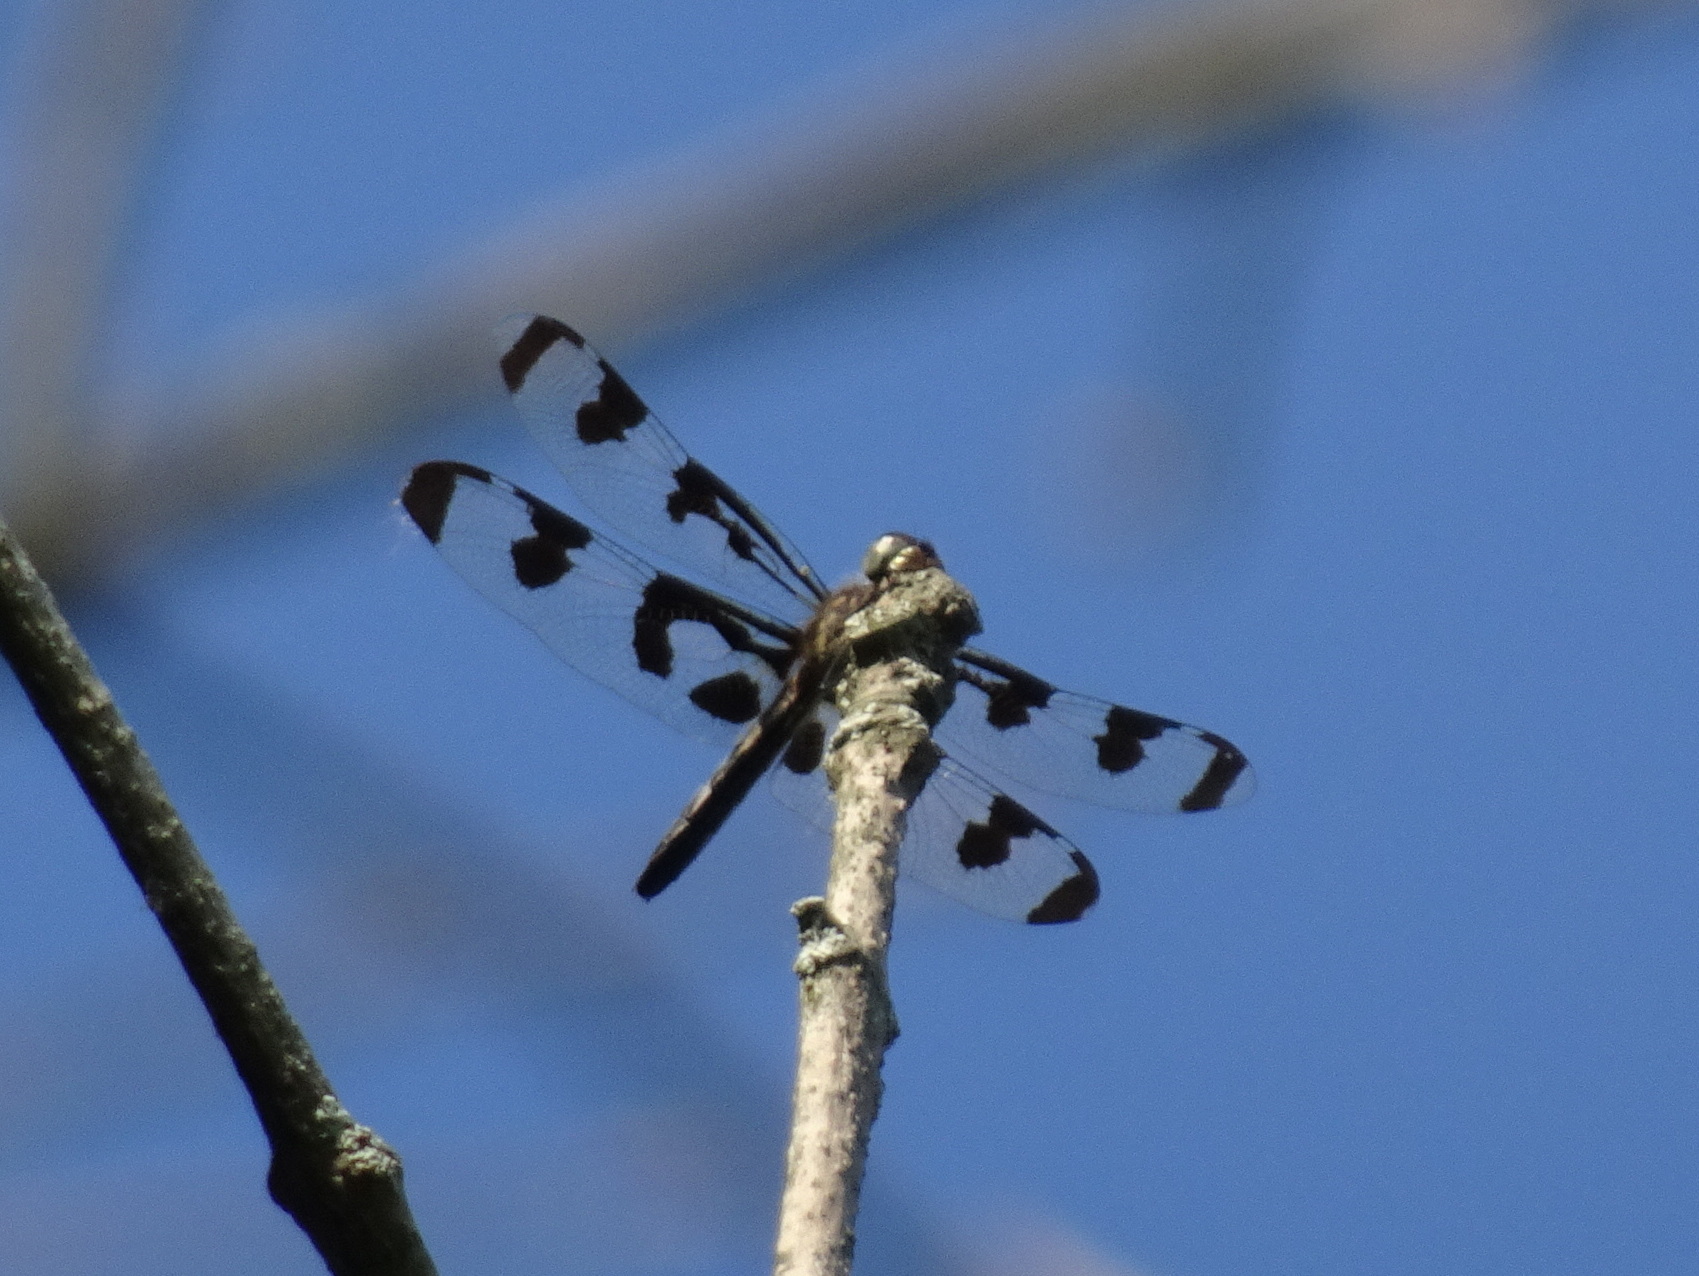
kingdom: Animalia
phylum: Arthropoda
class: Insecta
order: Odonata
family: Libellulidae
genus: Celithemis
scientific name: Celithemis fasciata
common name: Banded pennant
